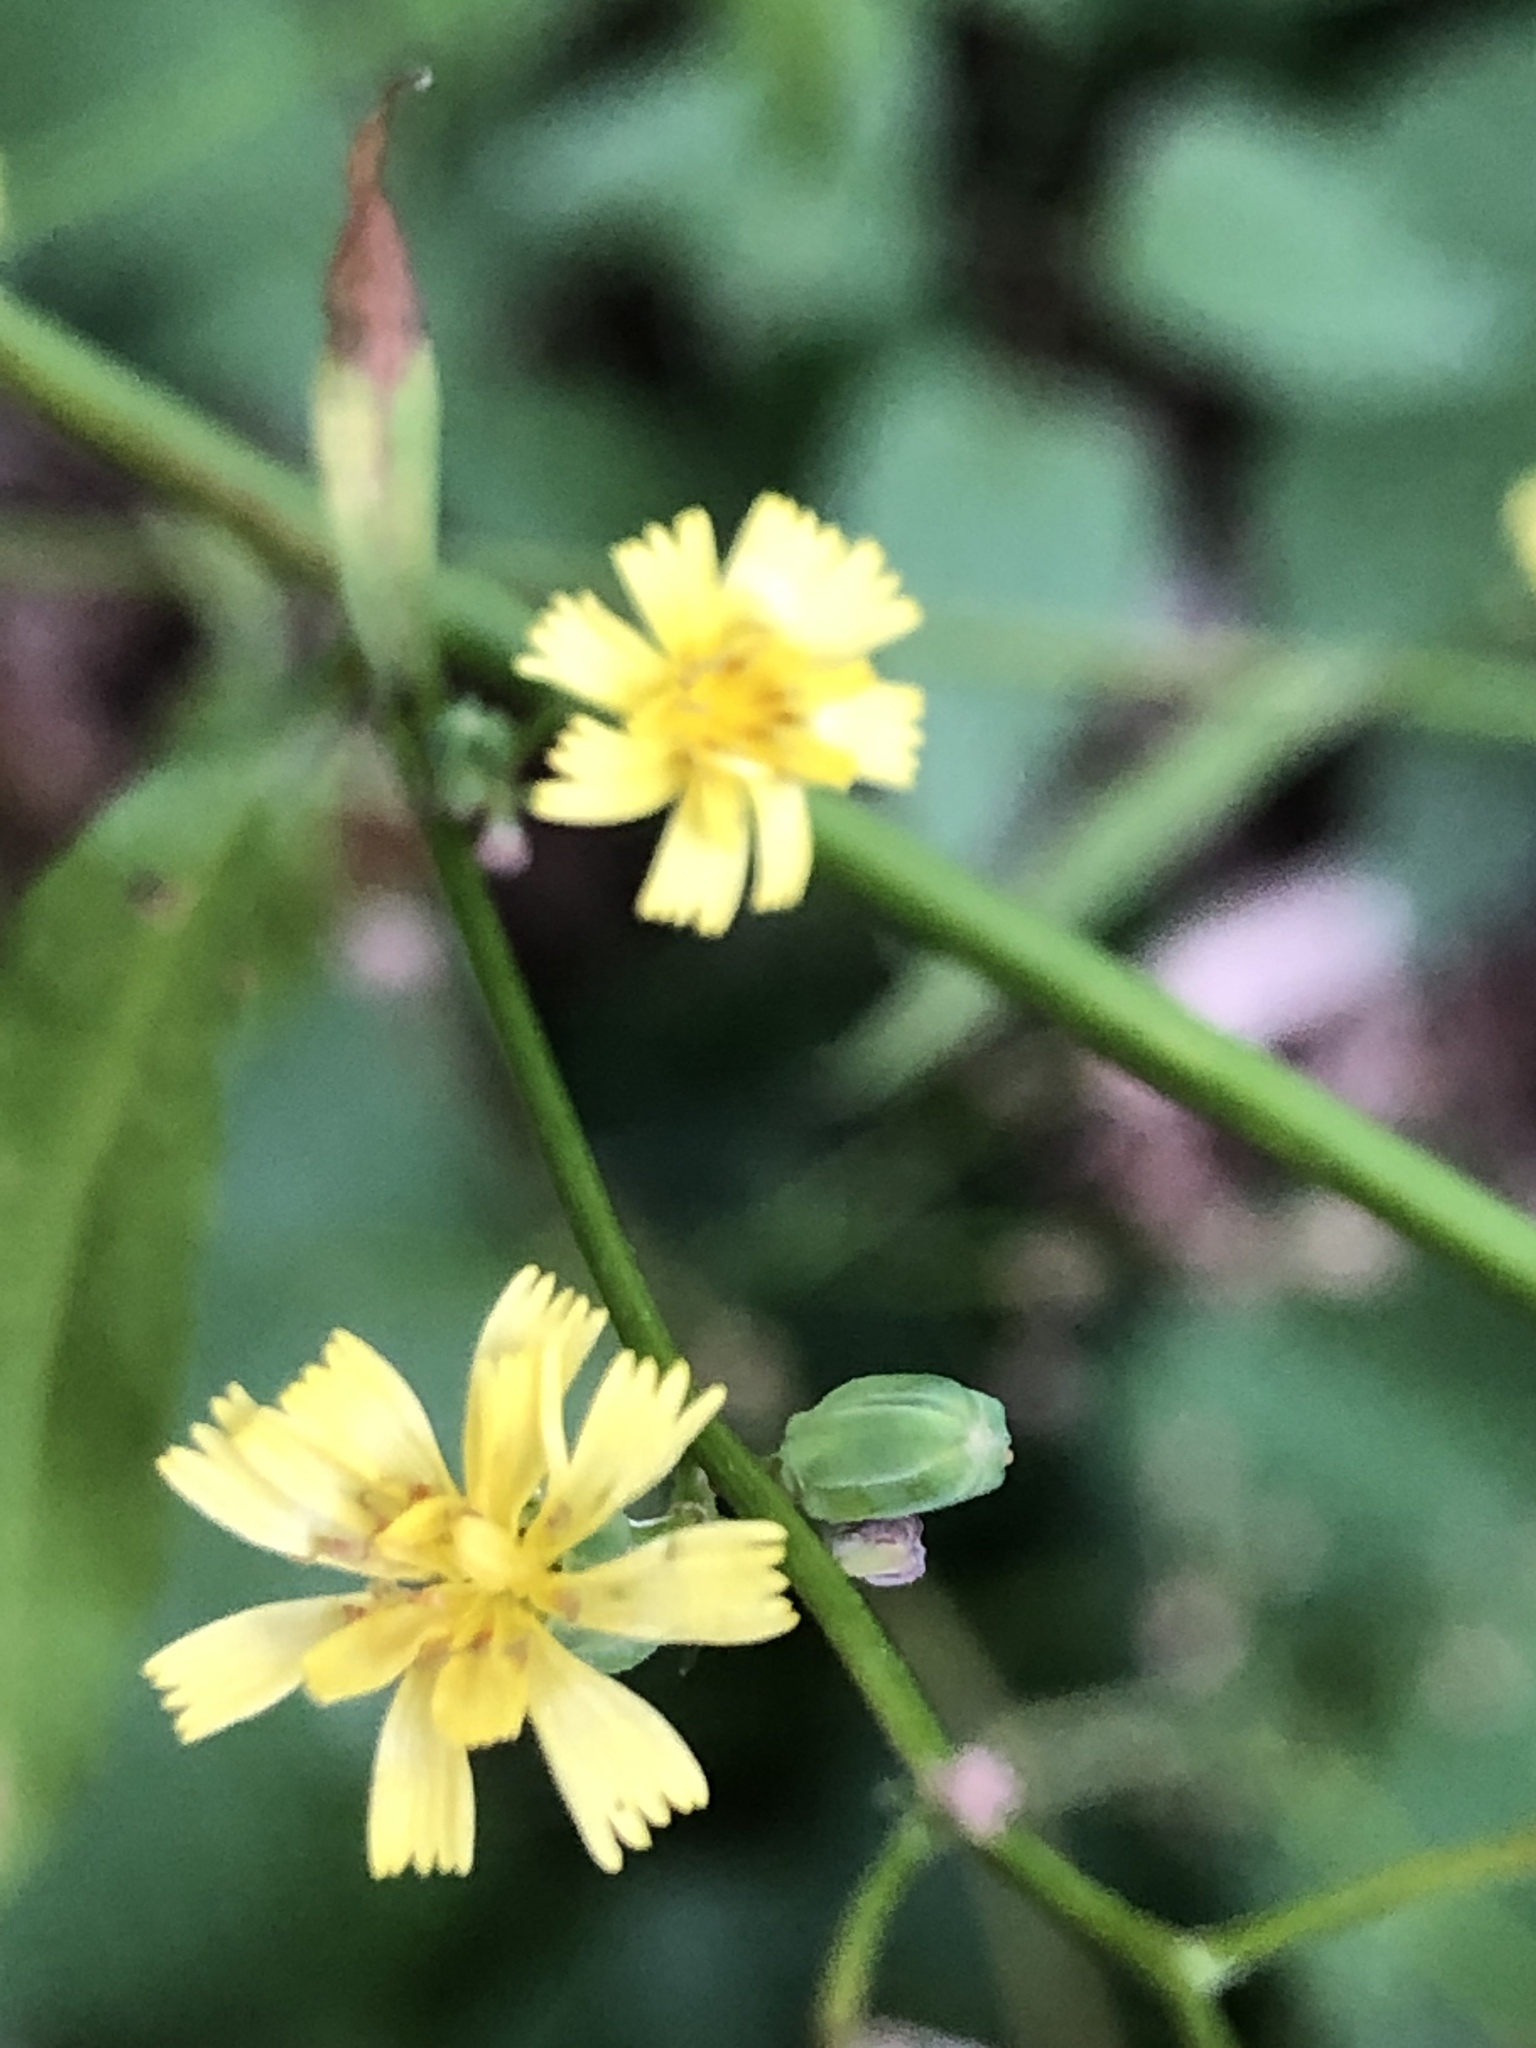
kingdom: Plantae
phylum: Tracheophyta
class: Magnoliopsida
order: Asterales
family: Asteraceae
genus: Lapsana
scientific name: Lapsana communis
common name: Nipplewort
